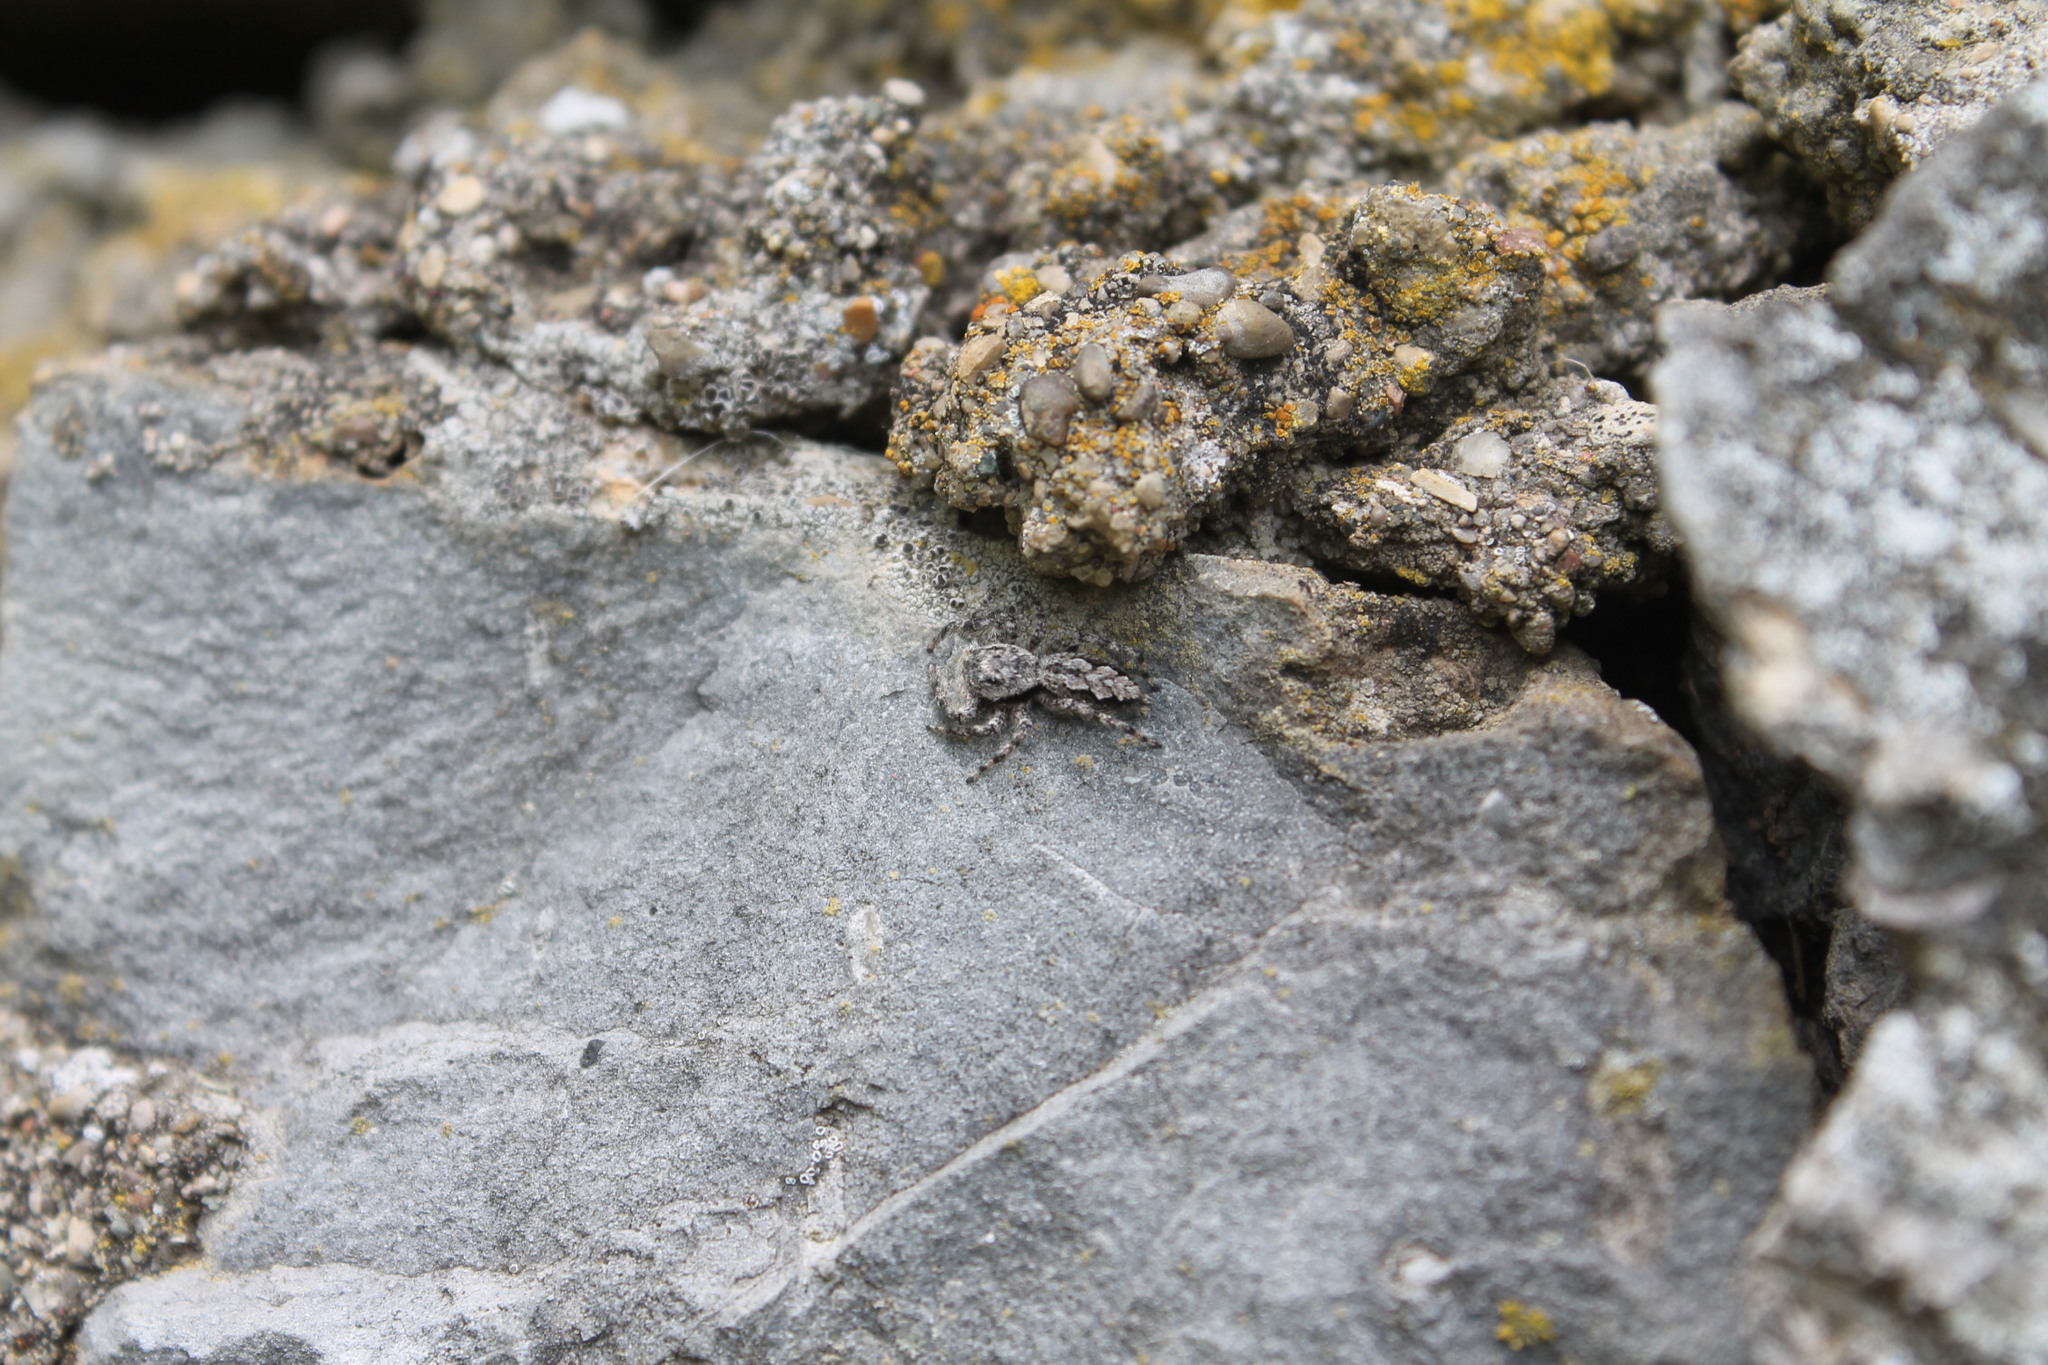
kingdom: Animalia
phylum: Arthropoda
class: Arachnida
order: Araneae
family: Salticidae
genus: Platycryptus
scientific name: Platycryptus undatus
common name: Tan jumping spider
